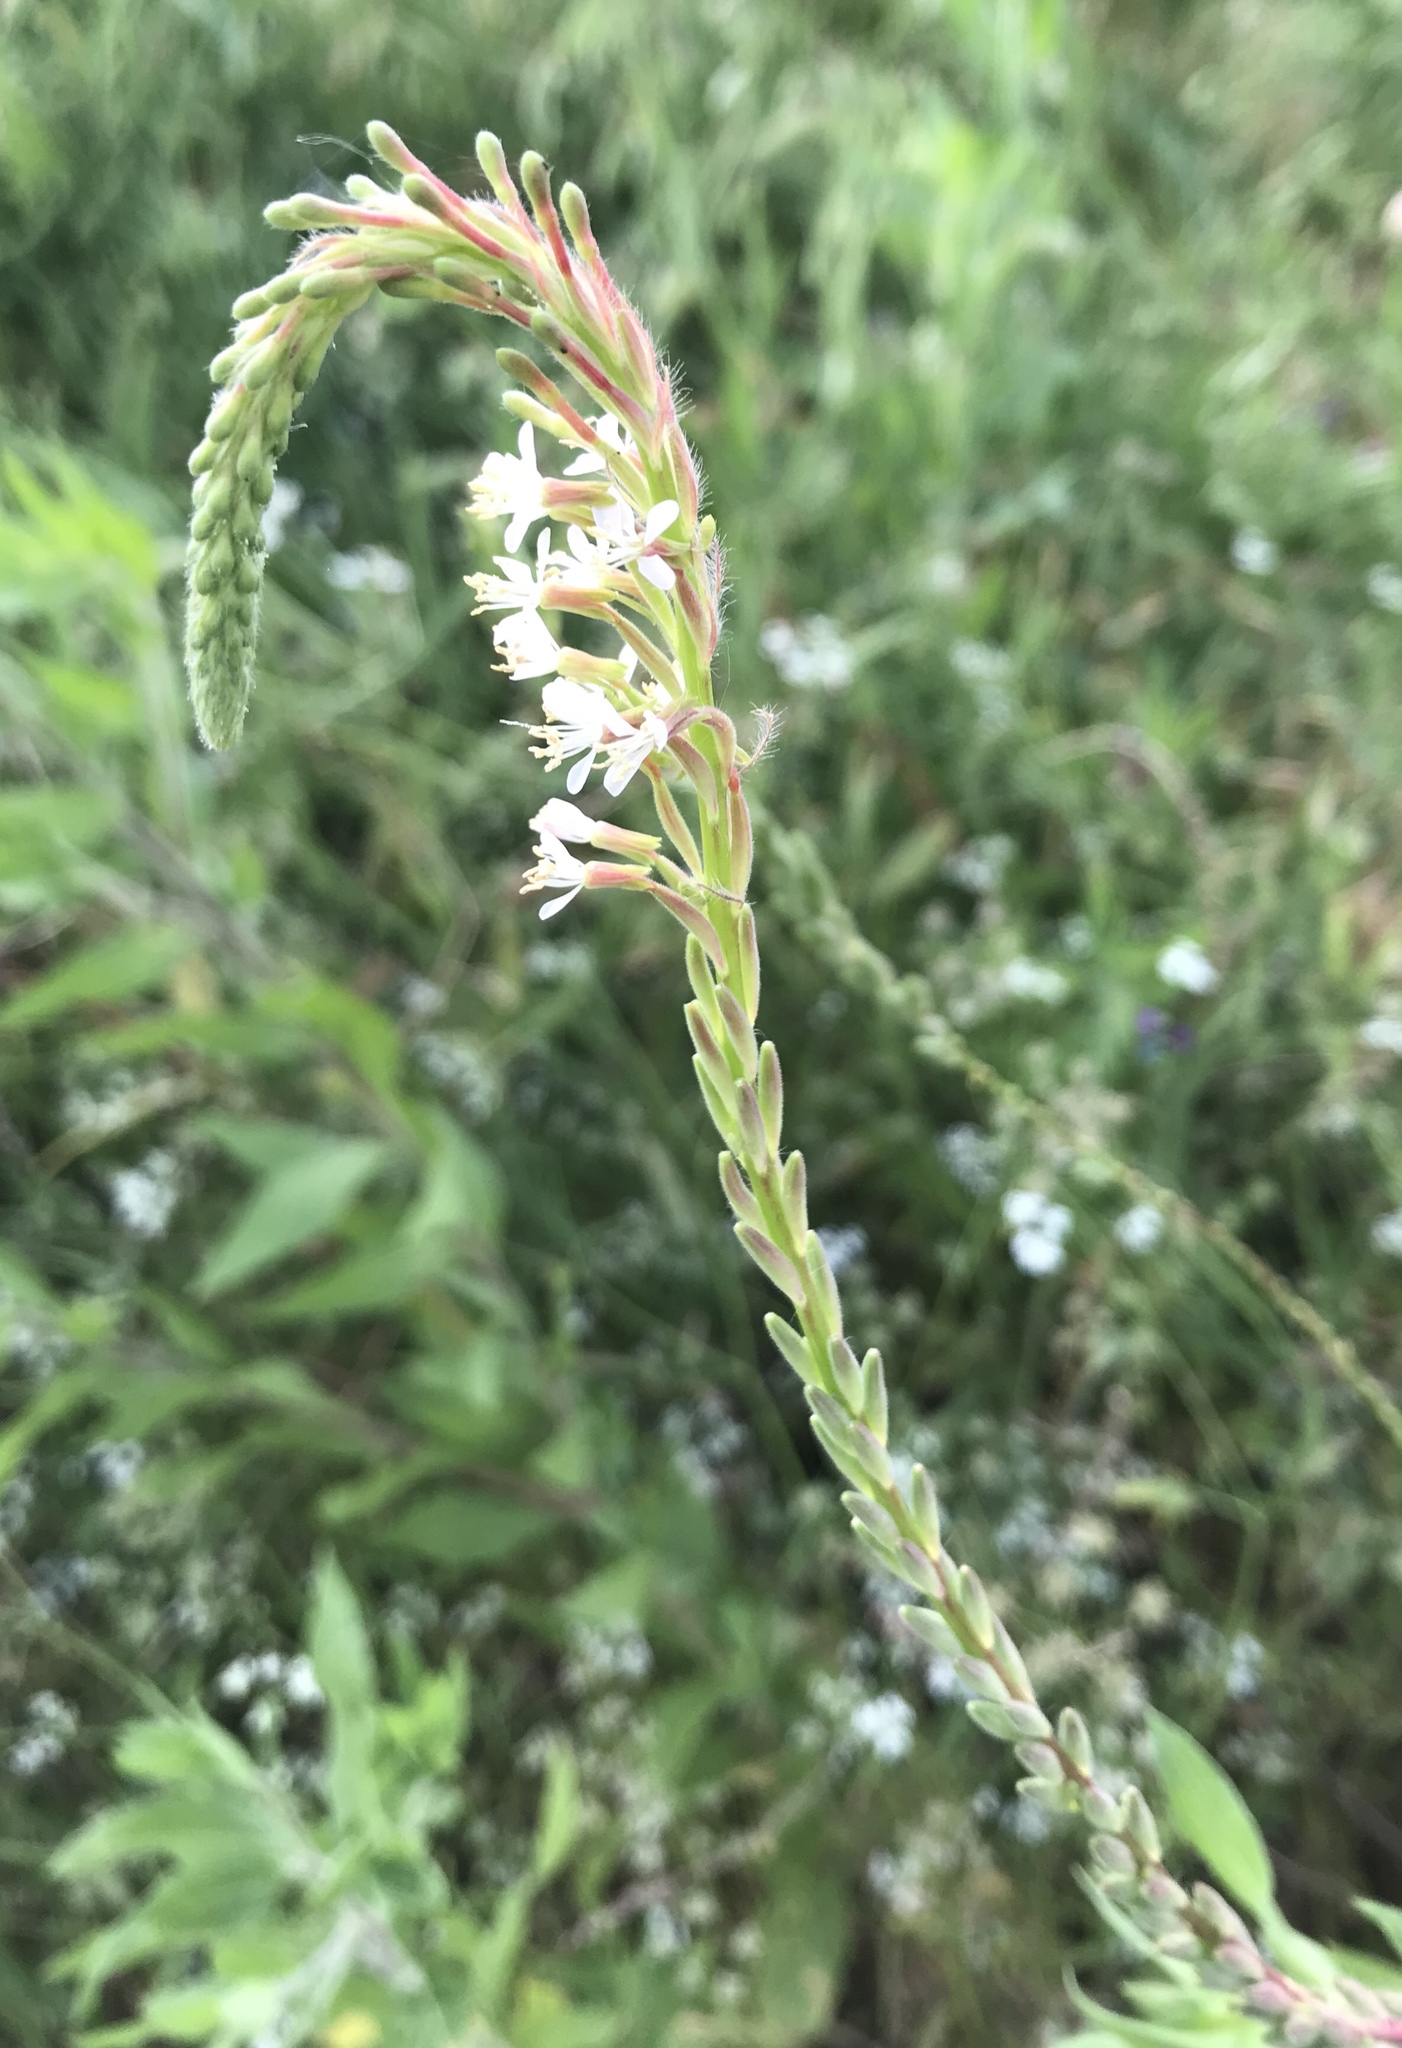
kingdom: Plantae
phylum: Tracheophyta
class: Magnoliopsida
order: Myrtales
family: Onagraceae
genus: Oenothera
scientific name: Oenothera curtiflora
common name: Velvetweed
